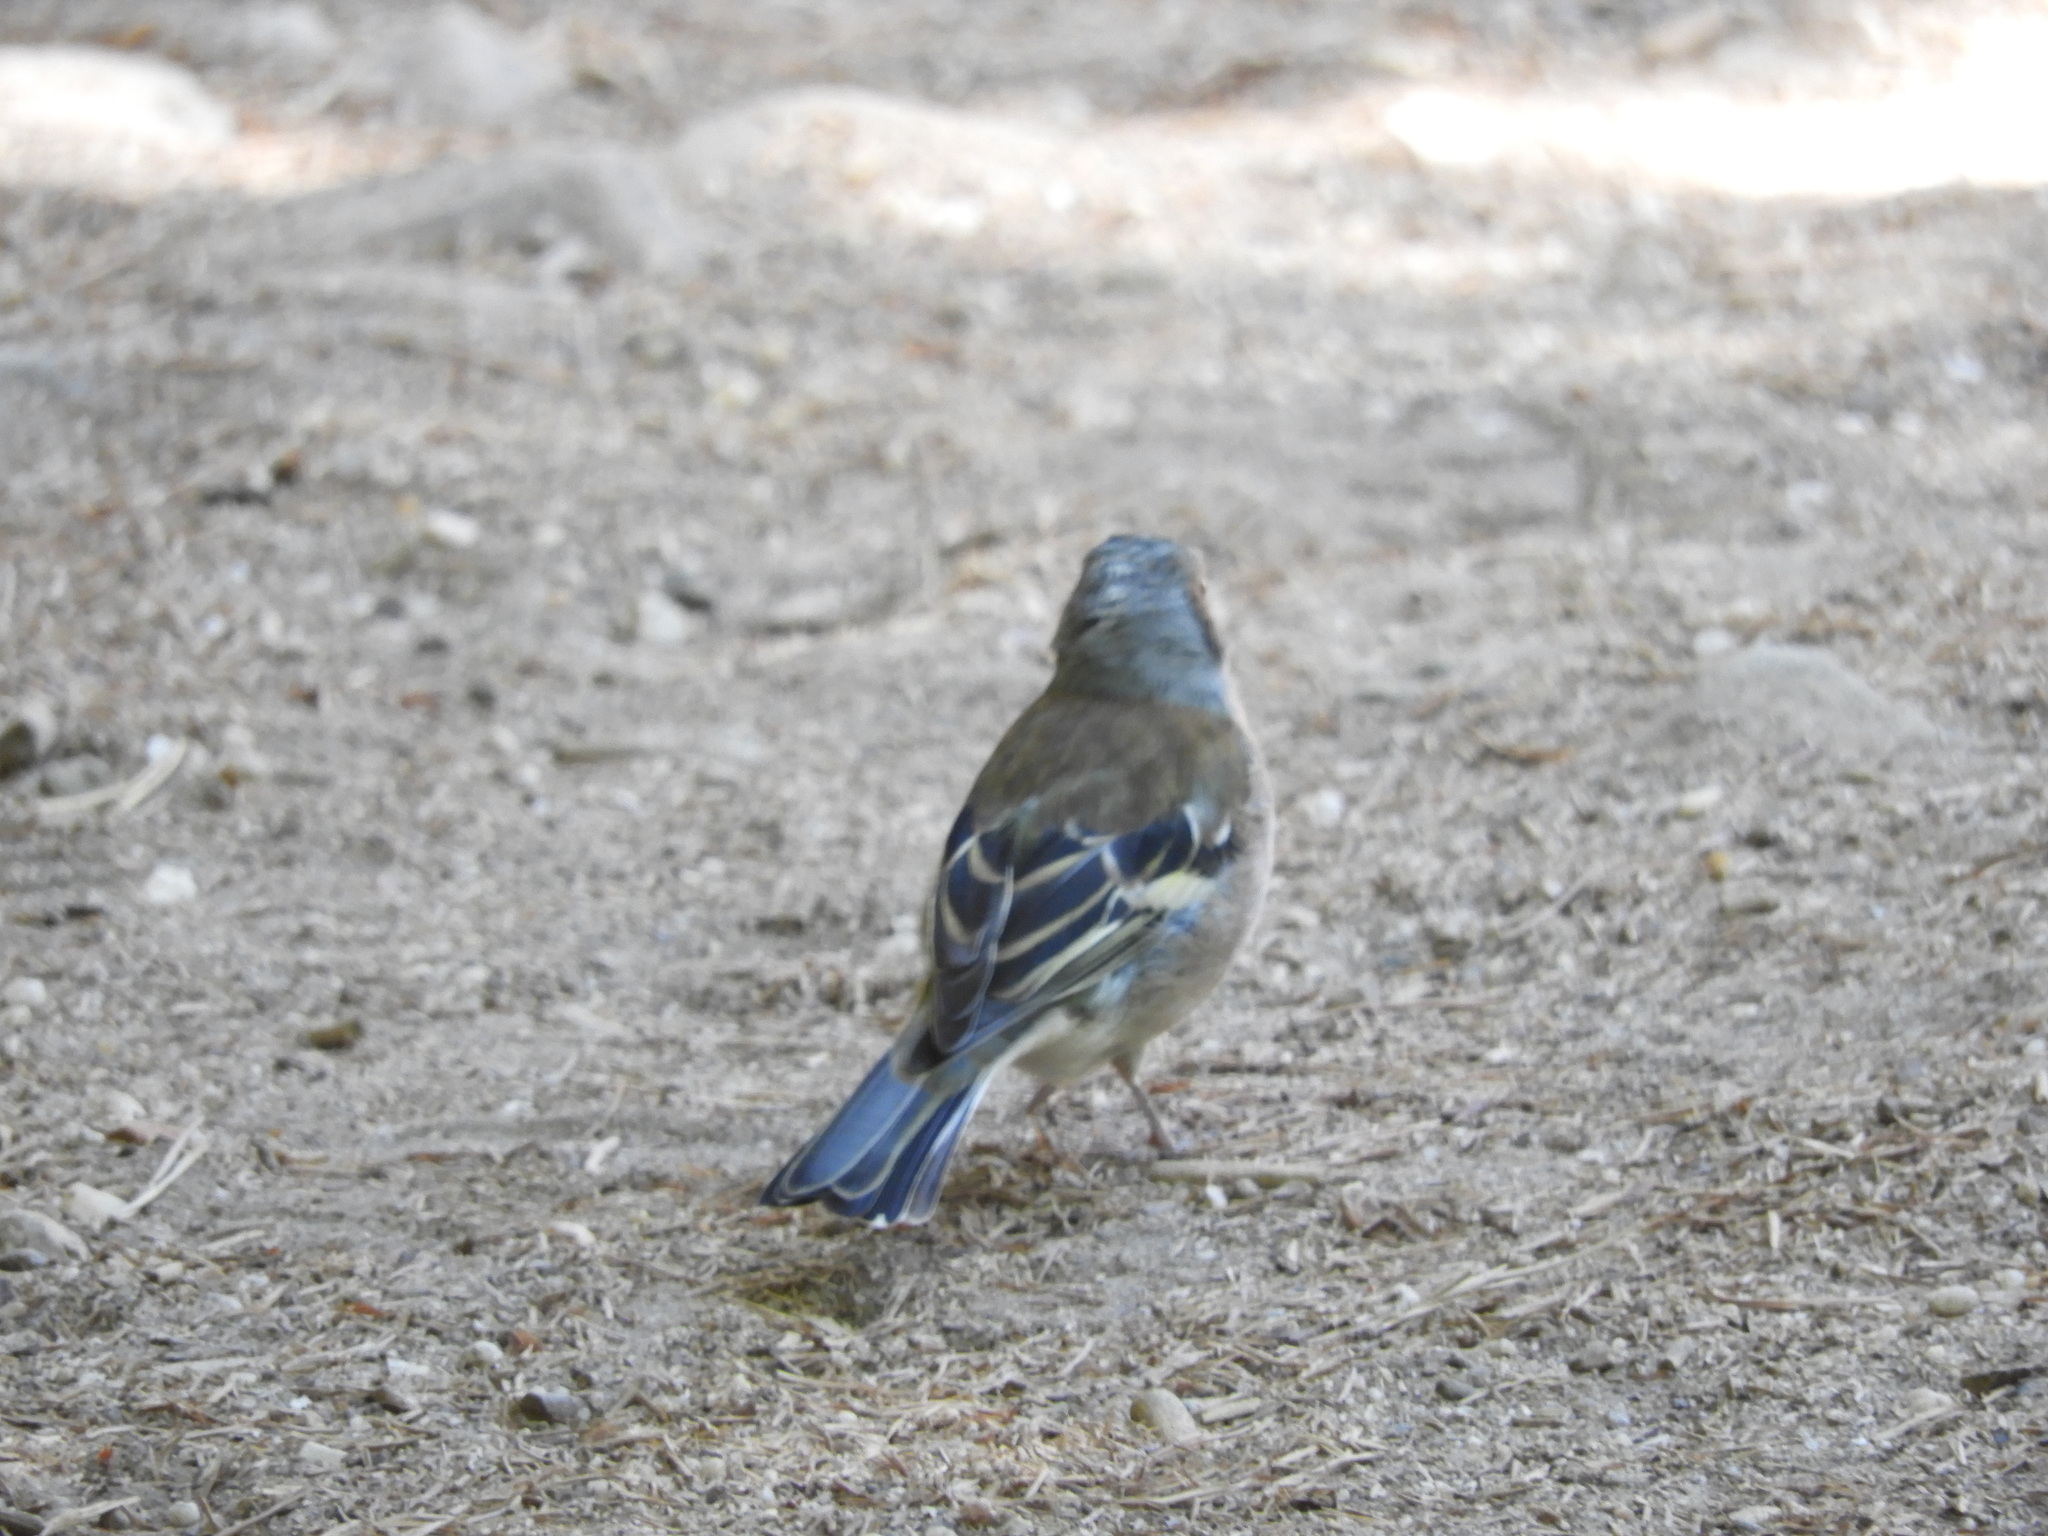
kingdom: Animalia
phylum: Chordata
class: Aves
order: Passeriformes
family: Fringillidae
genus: Fringilla
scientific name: Fringilla coelebs
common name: Common chaffinch
